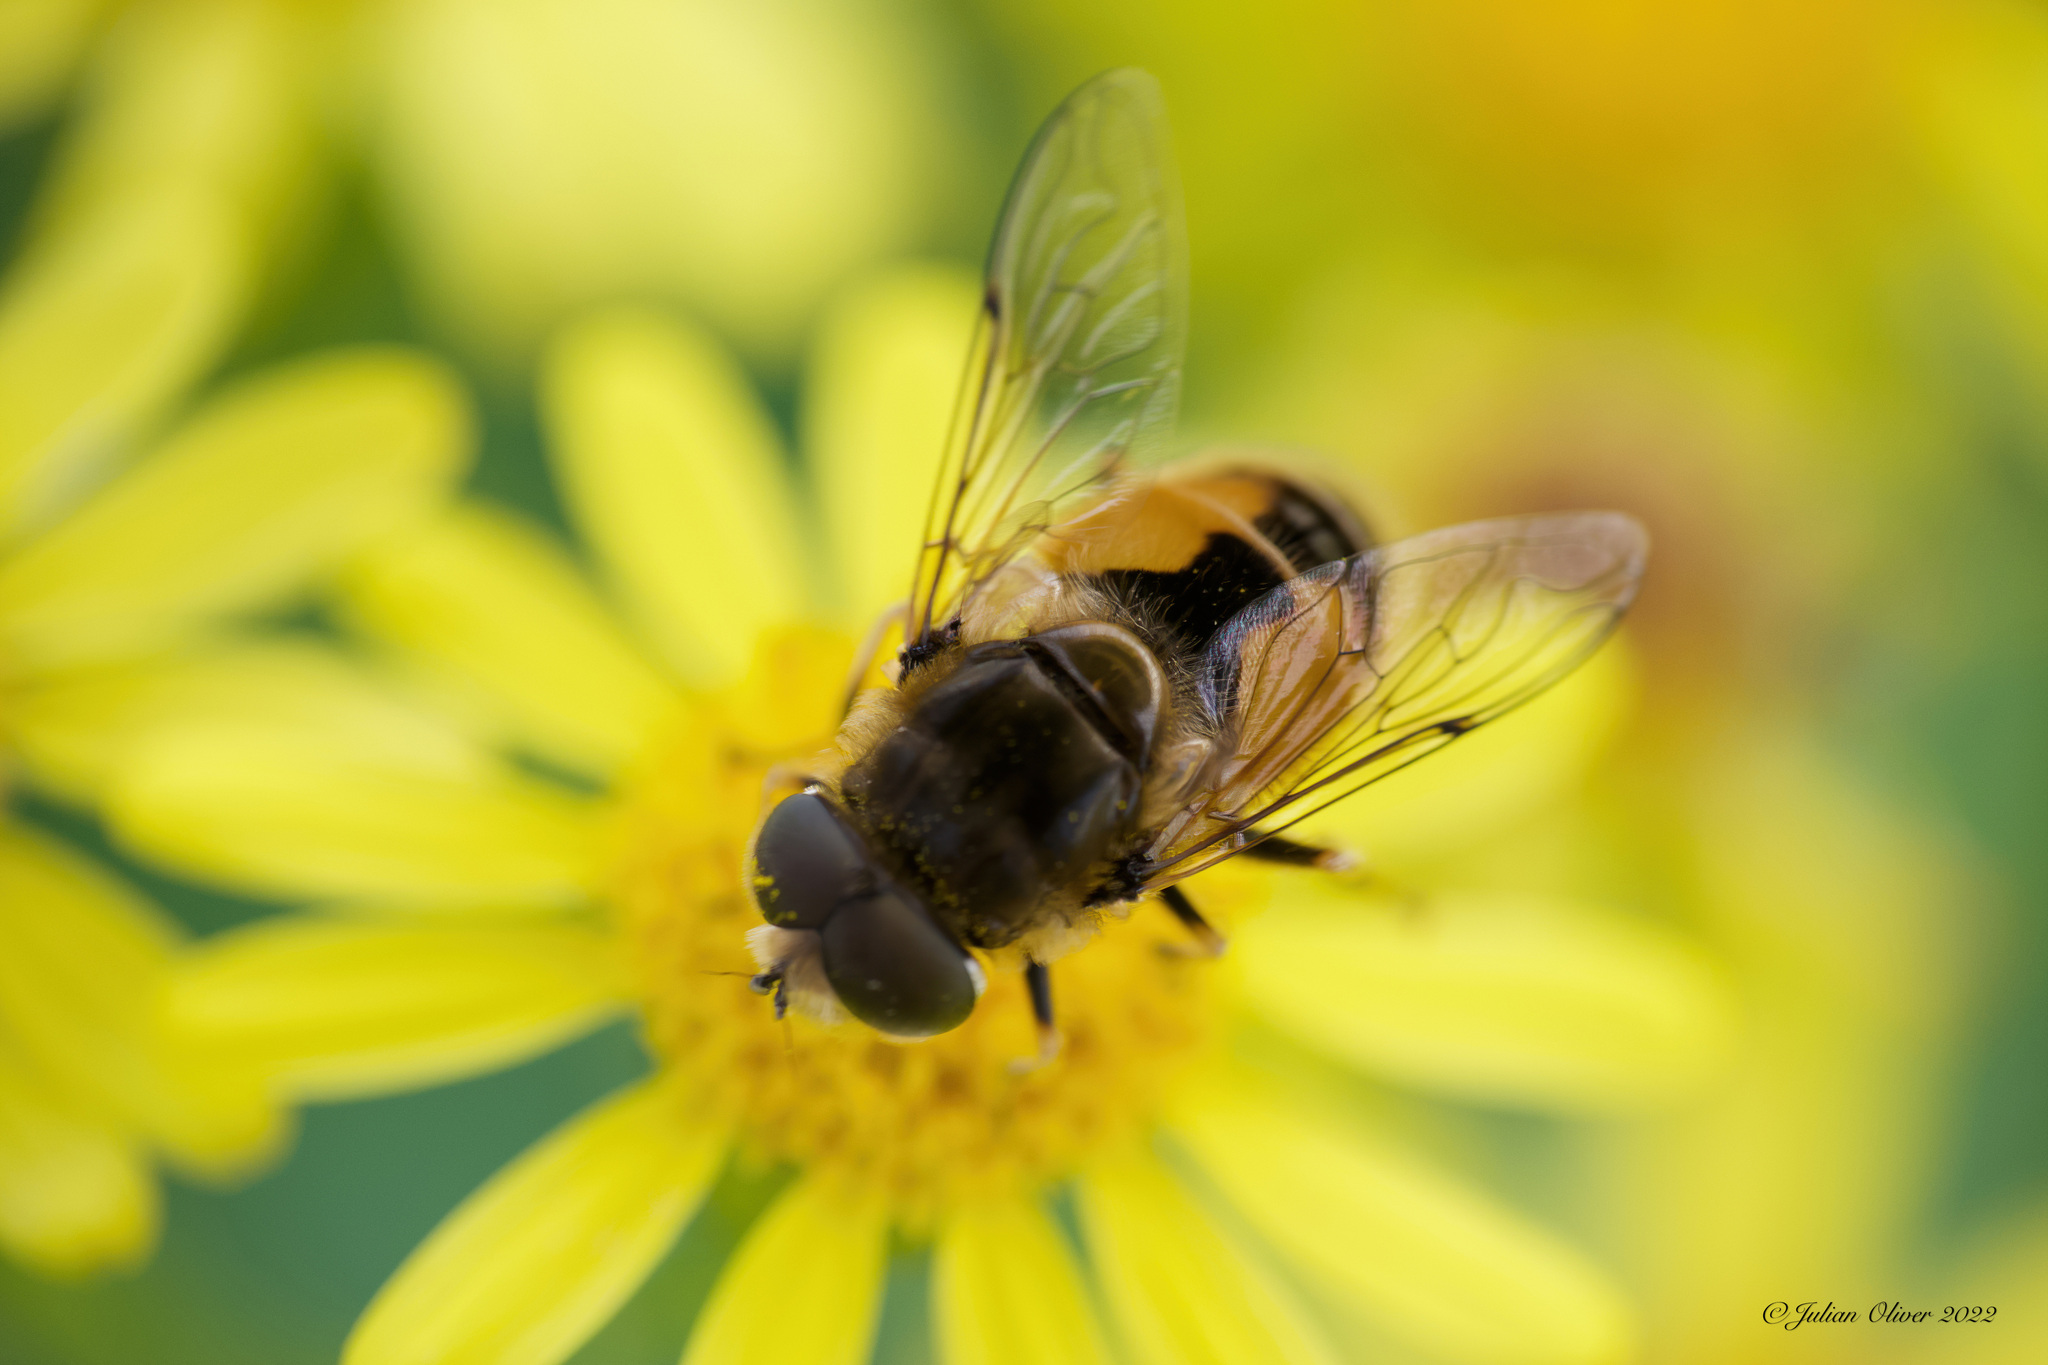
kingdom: Animalia
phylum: Arthropoda
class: Insecta
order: Diptera
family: Syrphidae
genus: Eristalis
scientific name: Eristalis arbustorum
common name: Hover fly
